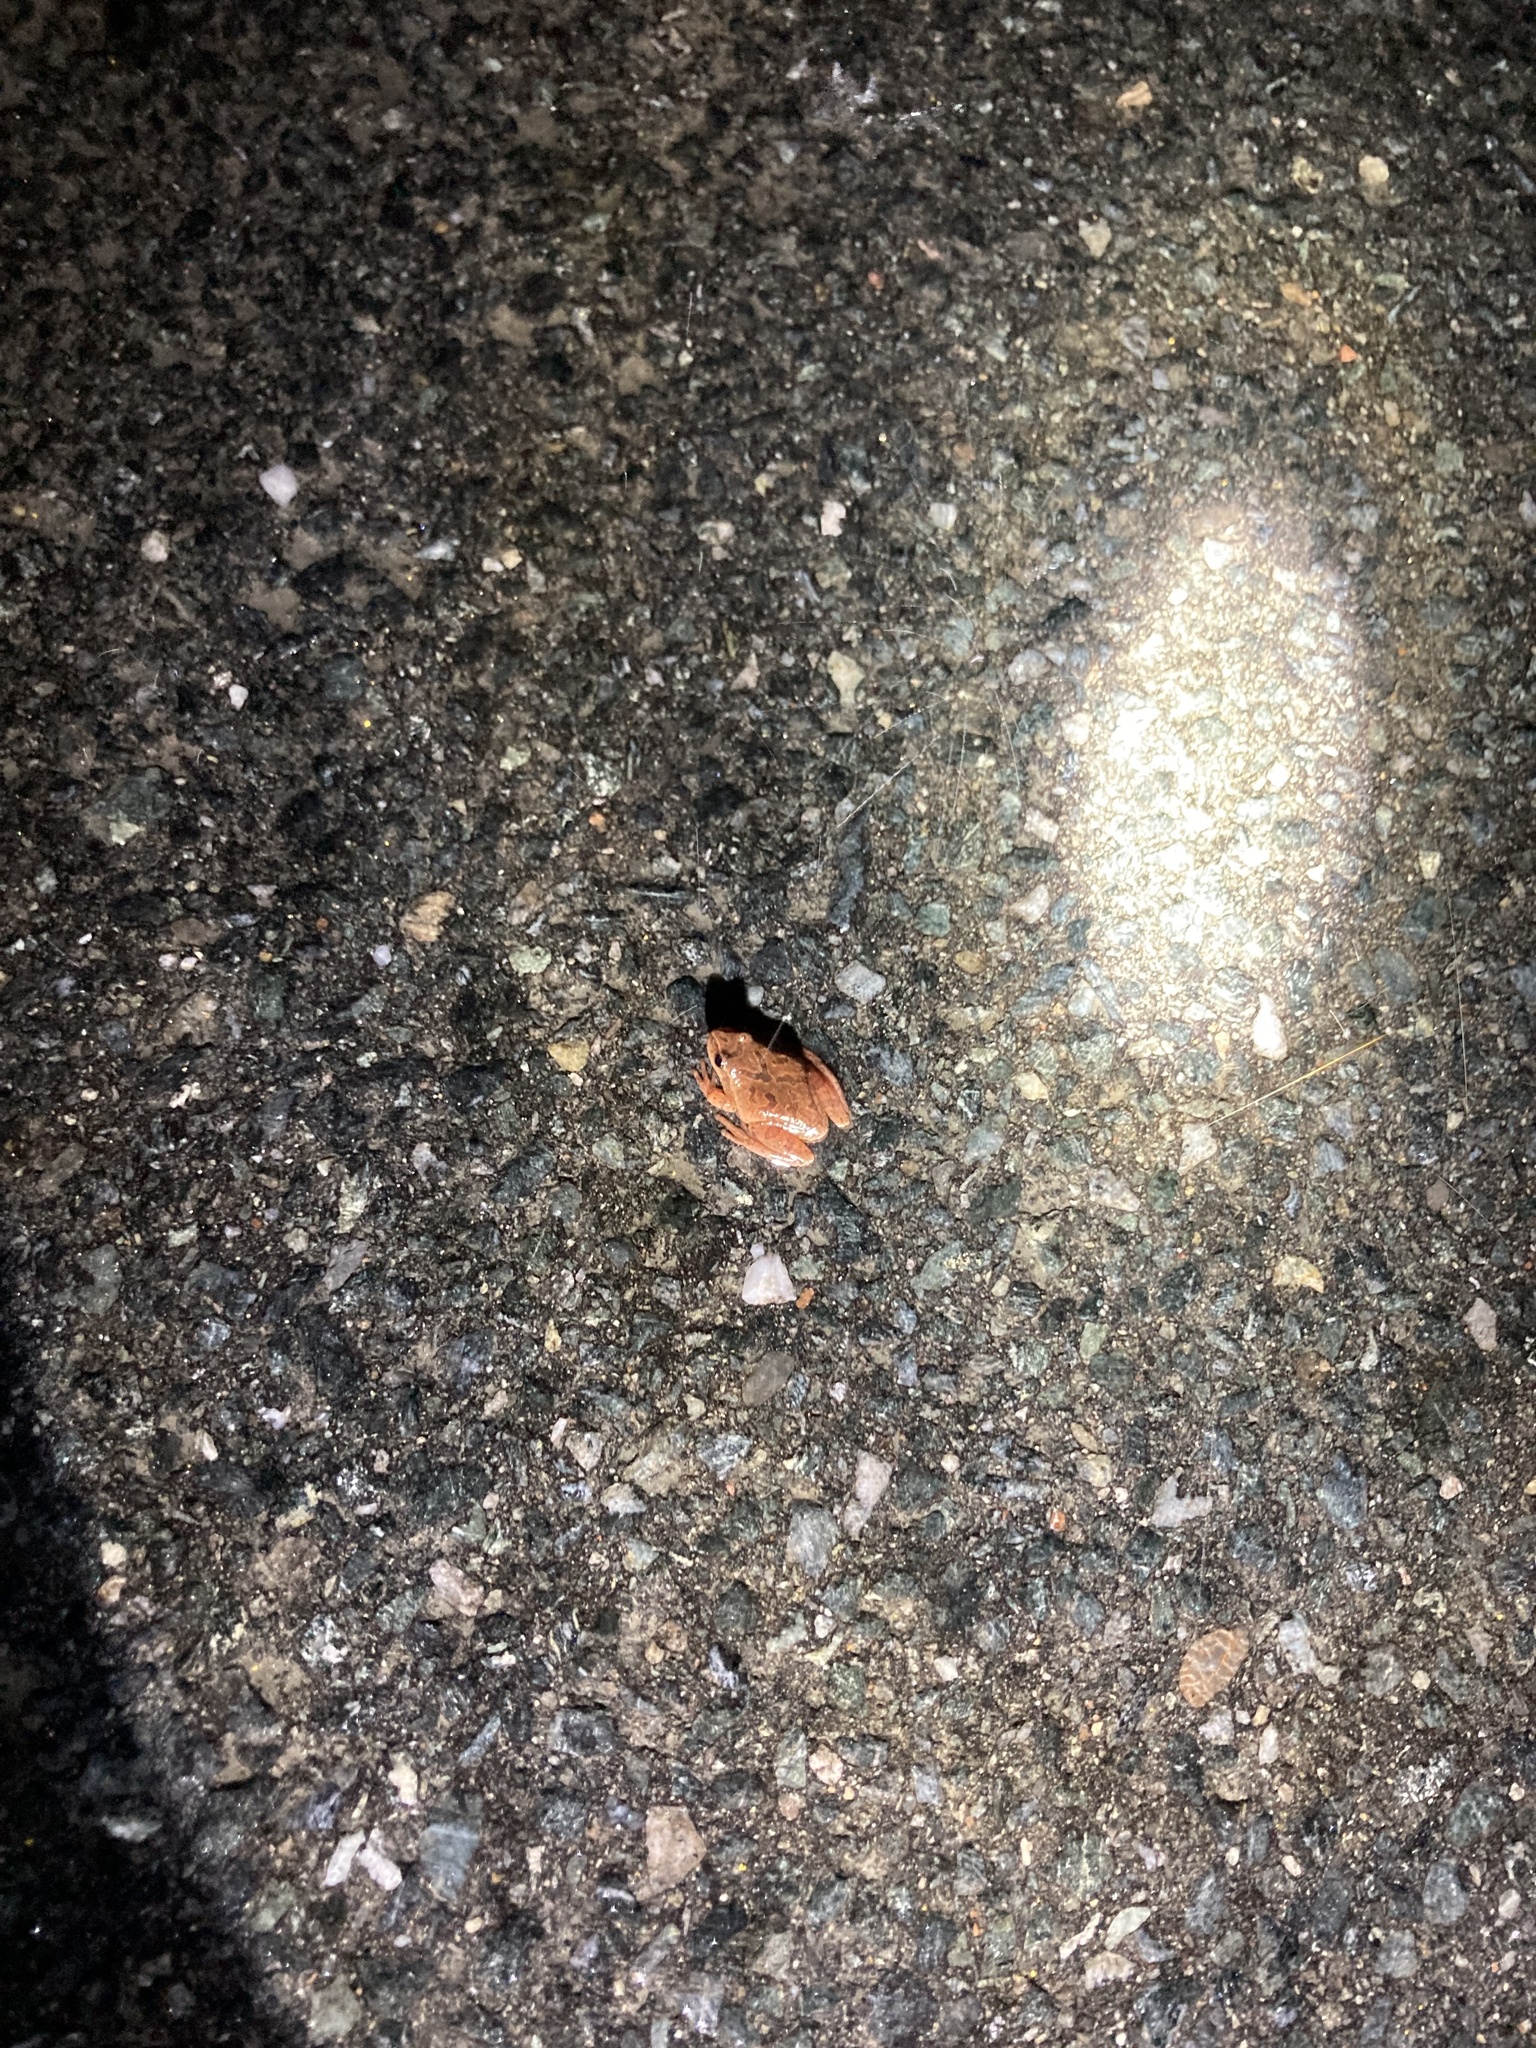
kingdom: Animalia
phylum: Chordata
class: Amphibia
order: Anura
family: Hylidae
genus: Pseudacris
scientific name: Pseudacris crucifer
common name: Spring peeper
